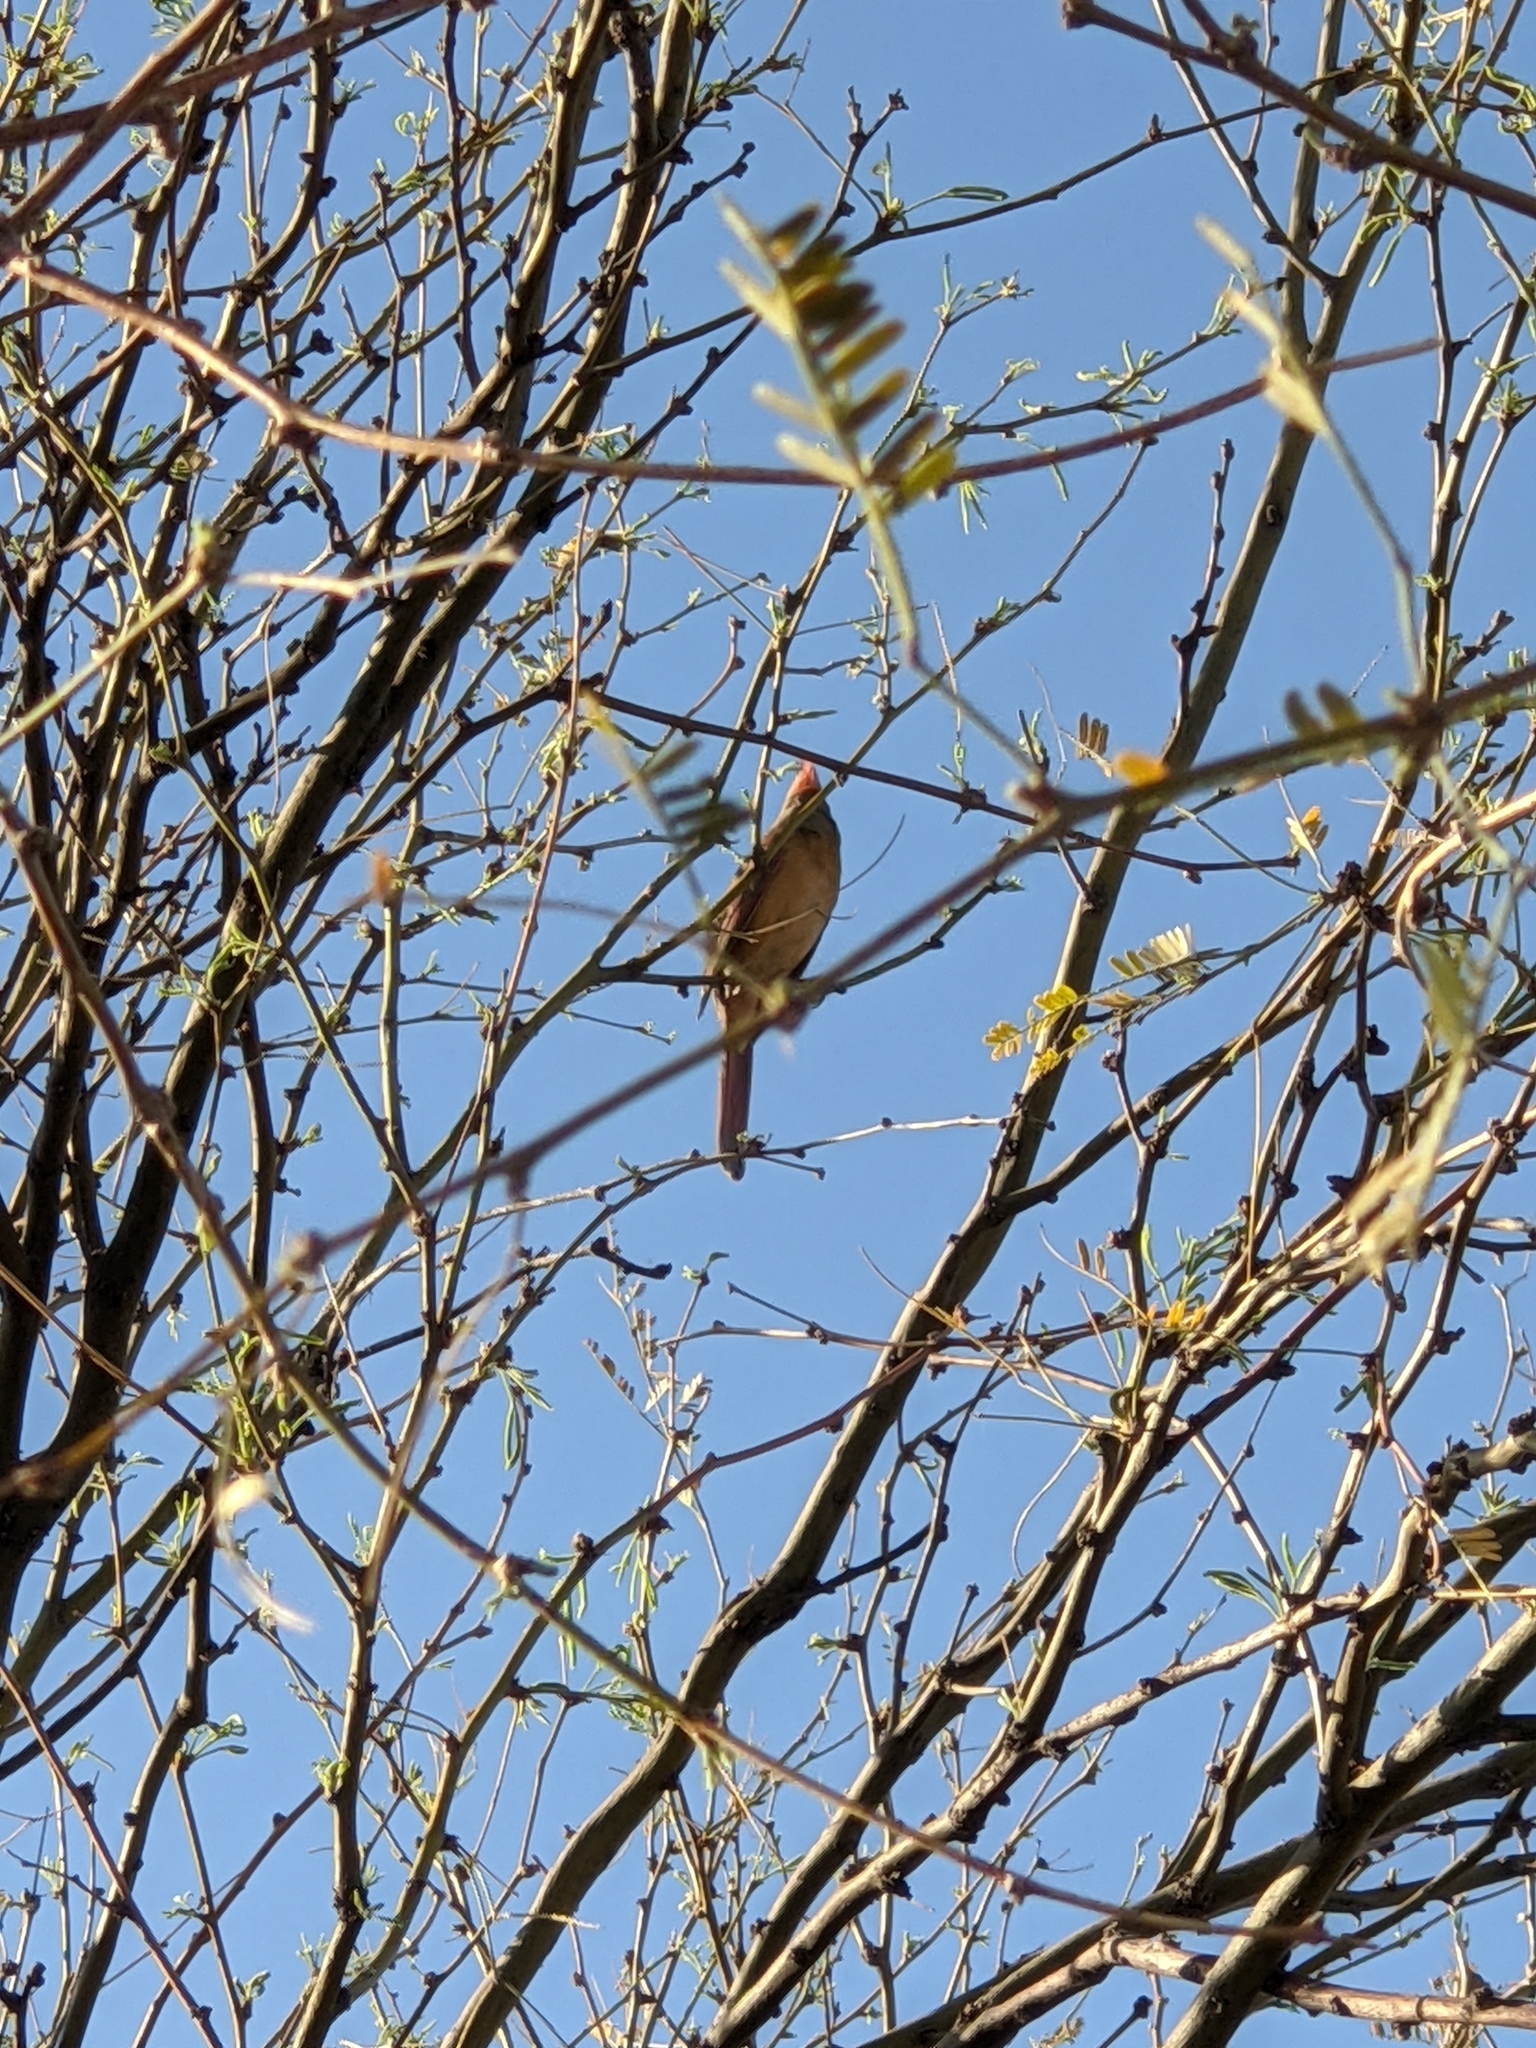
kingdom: Animalia
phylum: Chordata
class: Aves
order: Passeriformes
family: Cardinalidae
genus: Cardinalis
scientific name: Cardinalis cardinalis
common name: Northern cardinal
